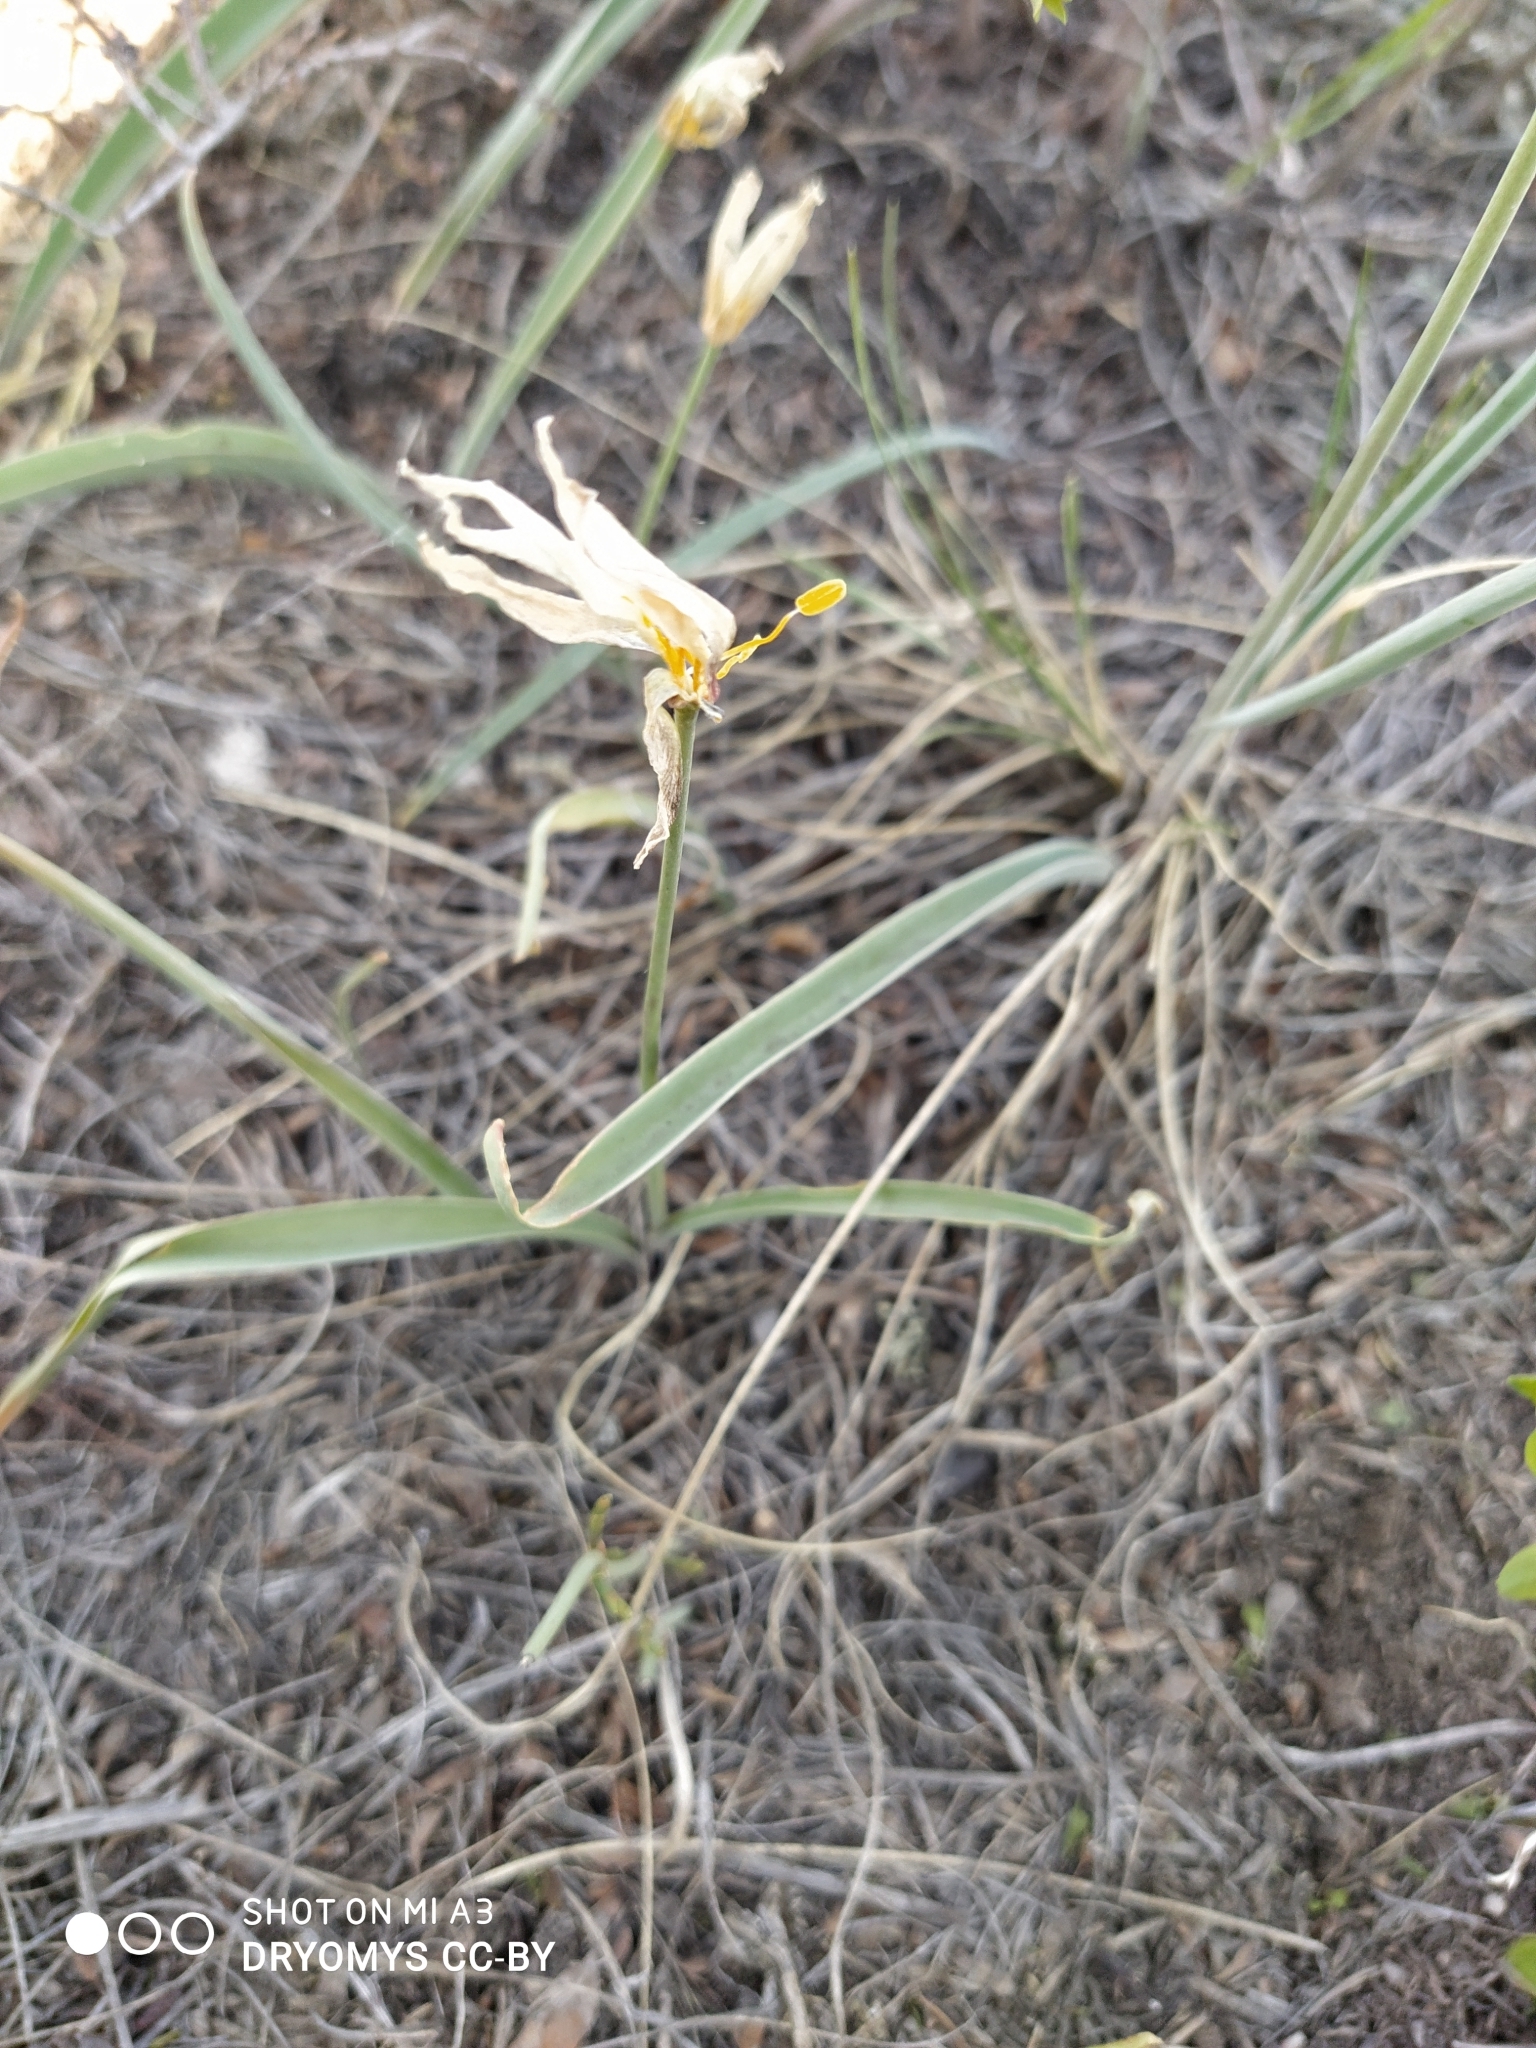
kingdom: Plantae
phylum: Tracheophyta
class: Liliopsida
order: Liliales
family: Liliaceae
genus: Tulipa
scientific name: Tulipa patens
